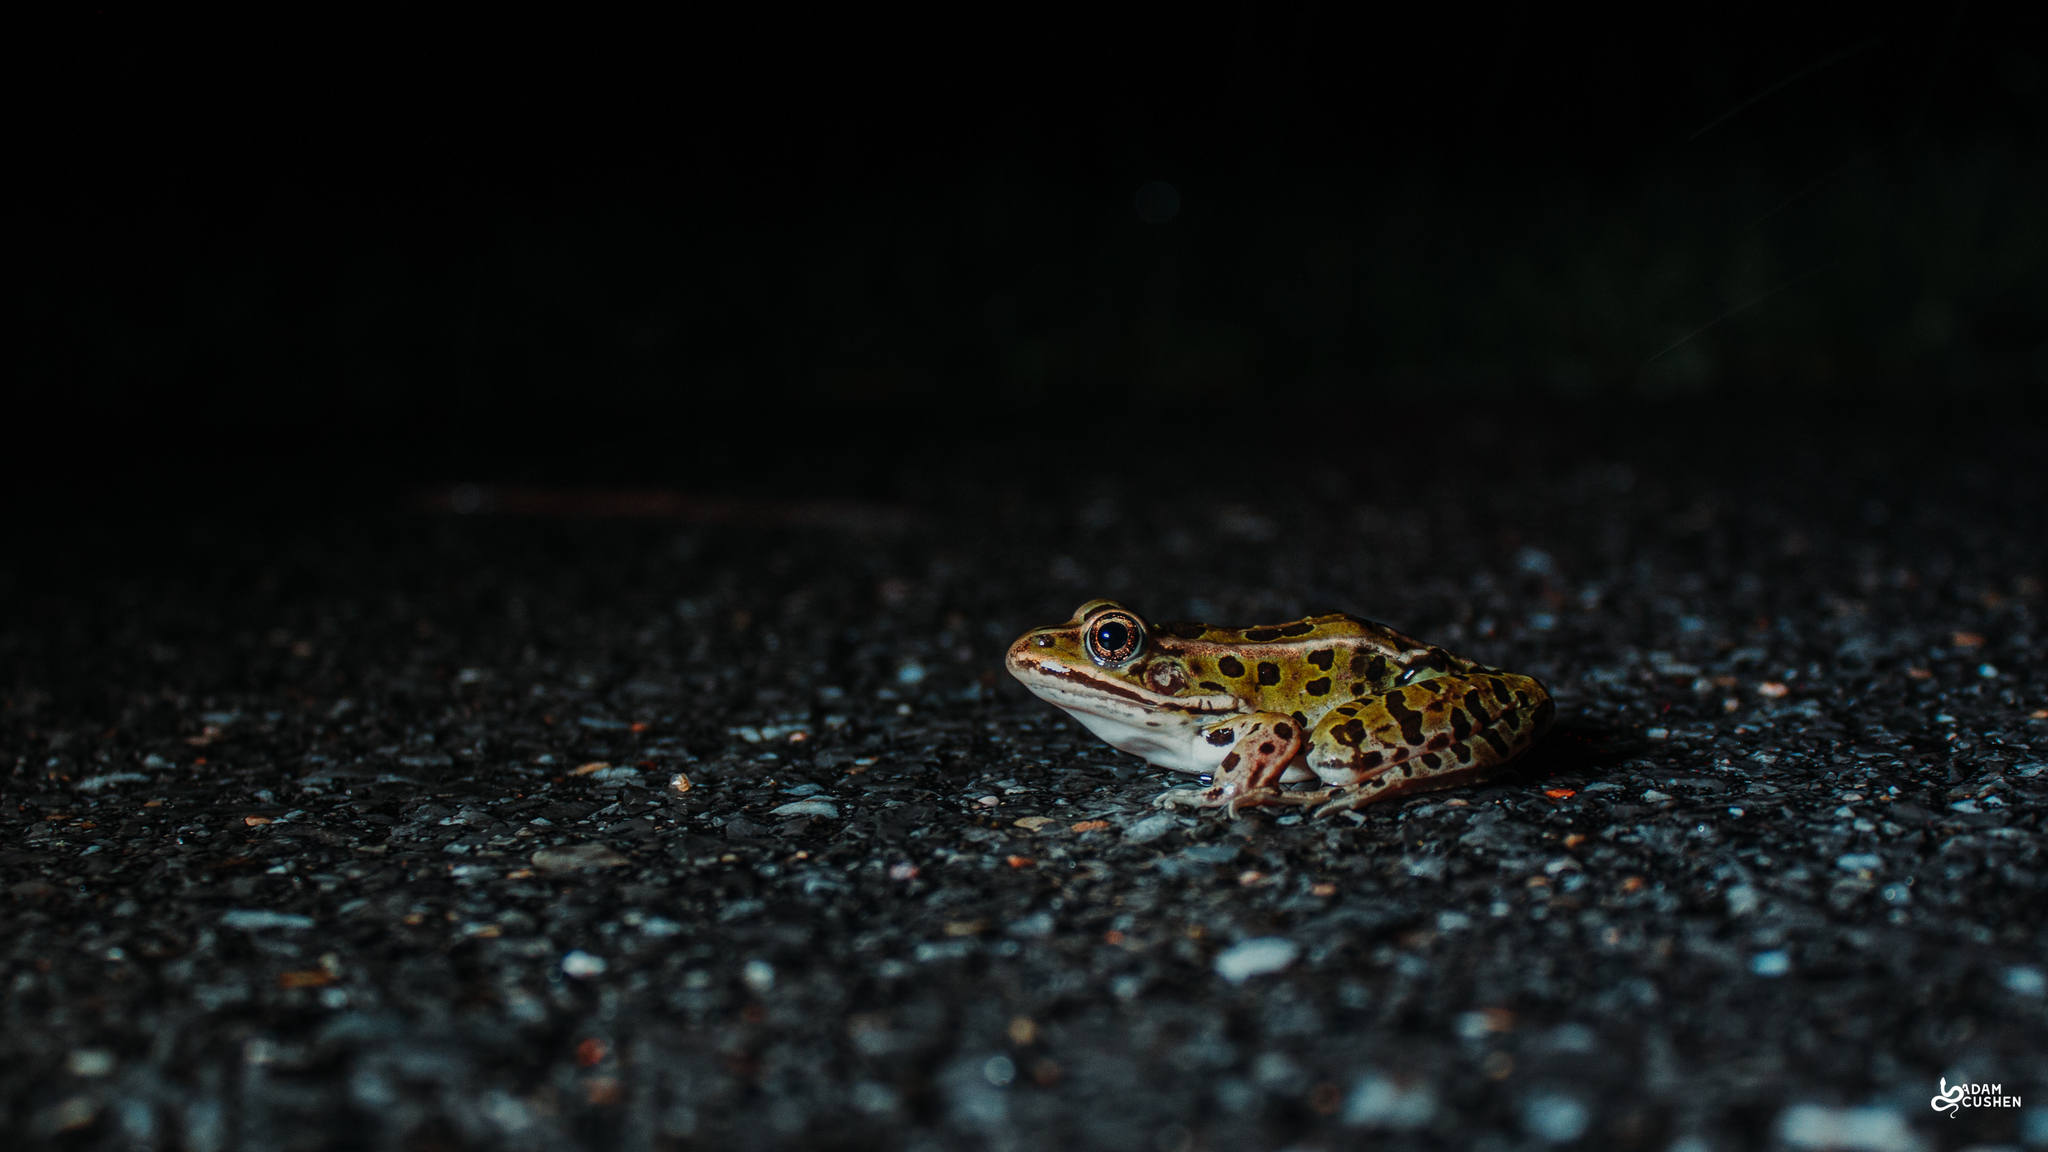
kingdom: Animalia
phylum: Chordata
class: Amphibia
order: Anura
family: Ranidae
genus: Lithobates
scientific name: Lithobates pipiens
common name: Northern leopard frog
